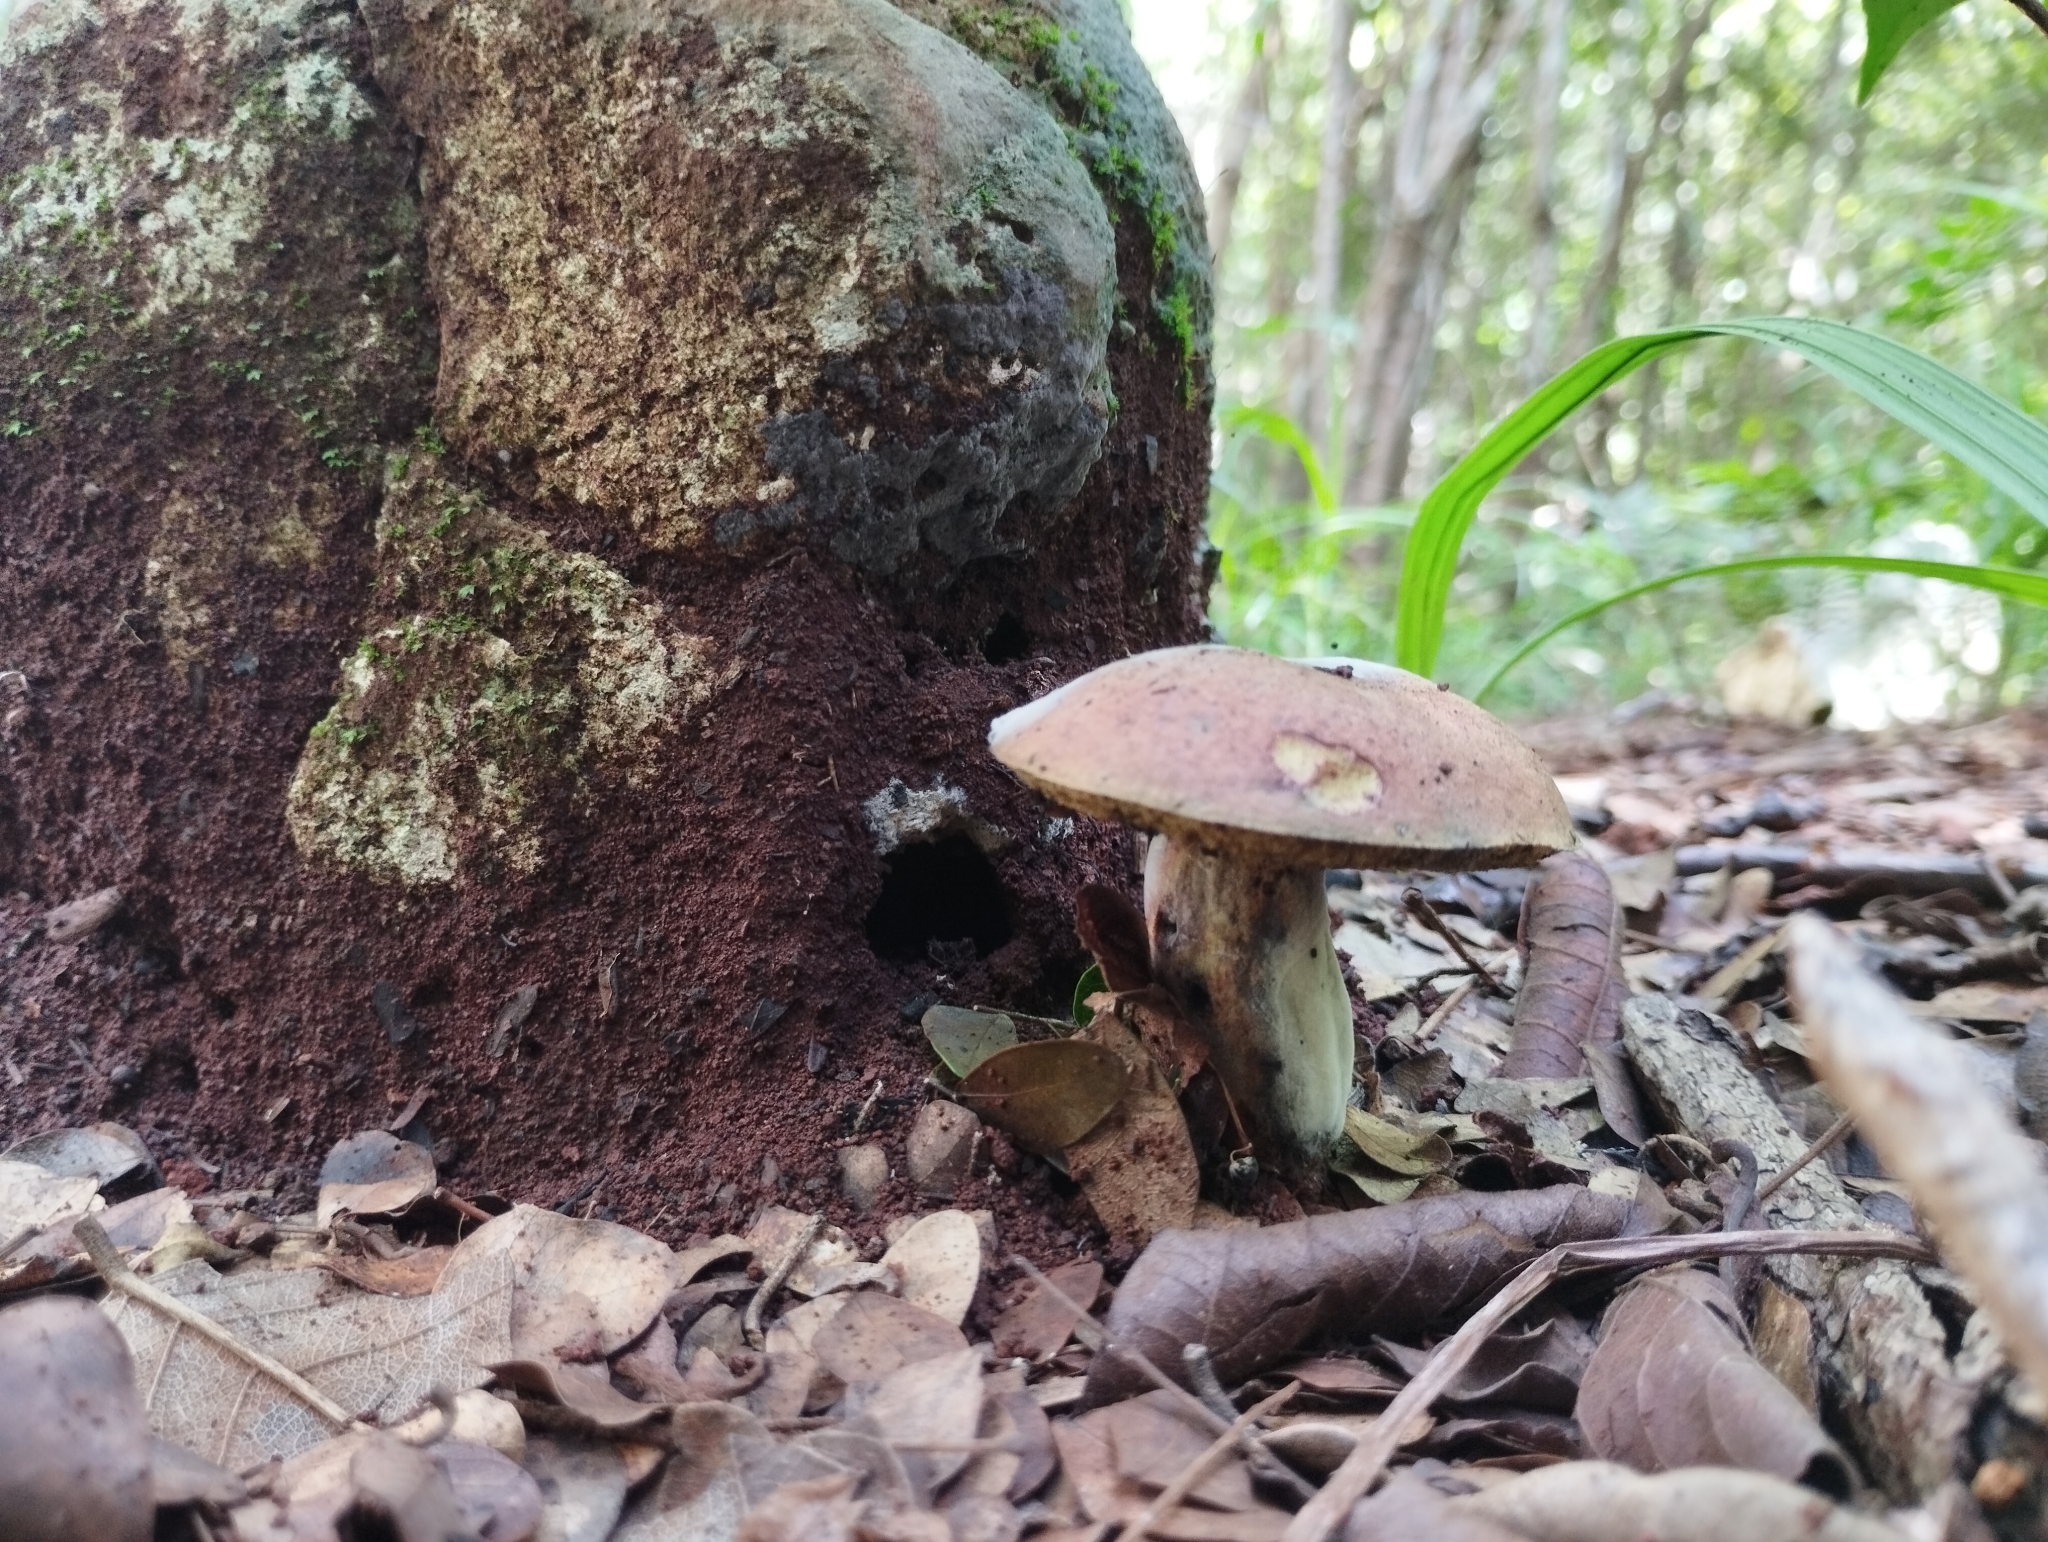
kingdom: Fungi
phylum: Basidiomycota
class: Agaricomycetes
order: Boletales
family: Boletaceae
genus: Boletus
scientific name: Boletus subvelutipes
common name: Red-mouth bolete
